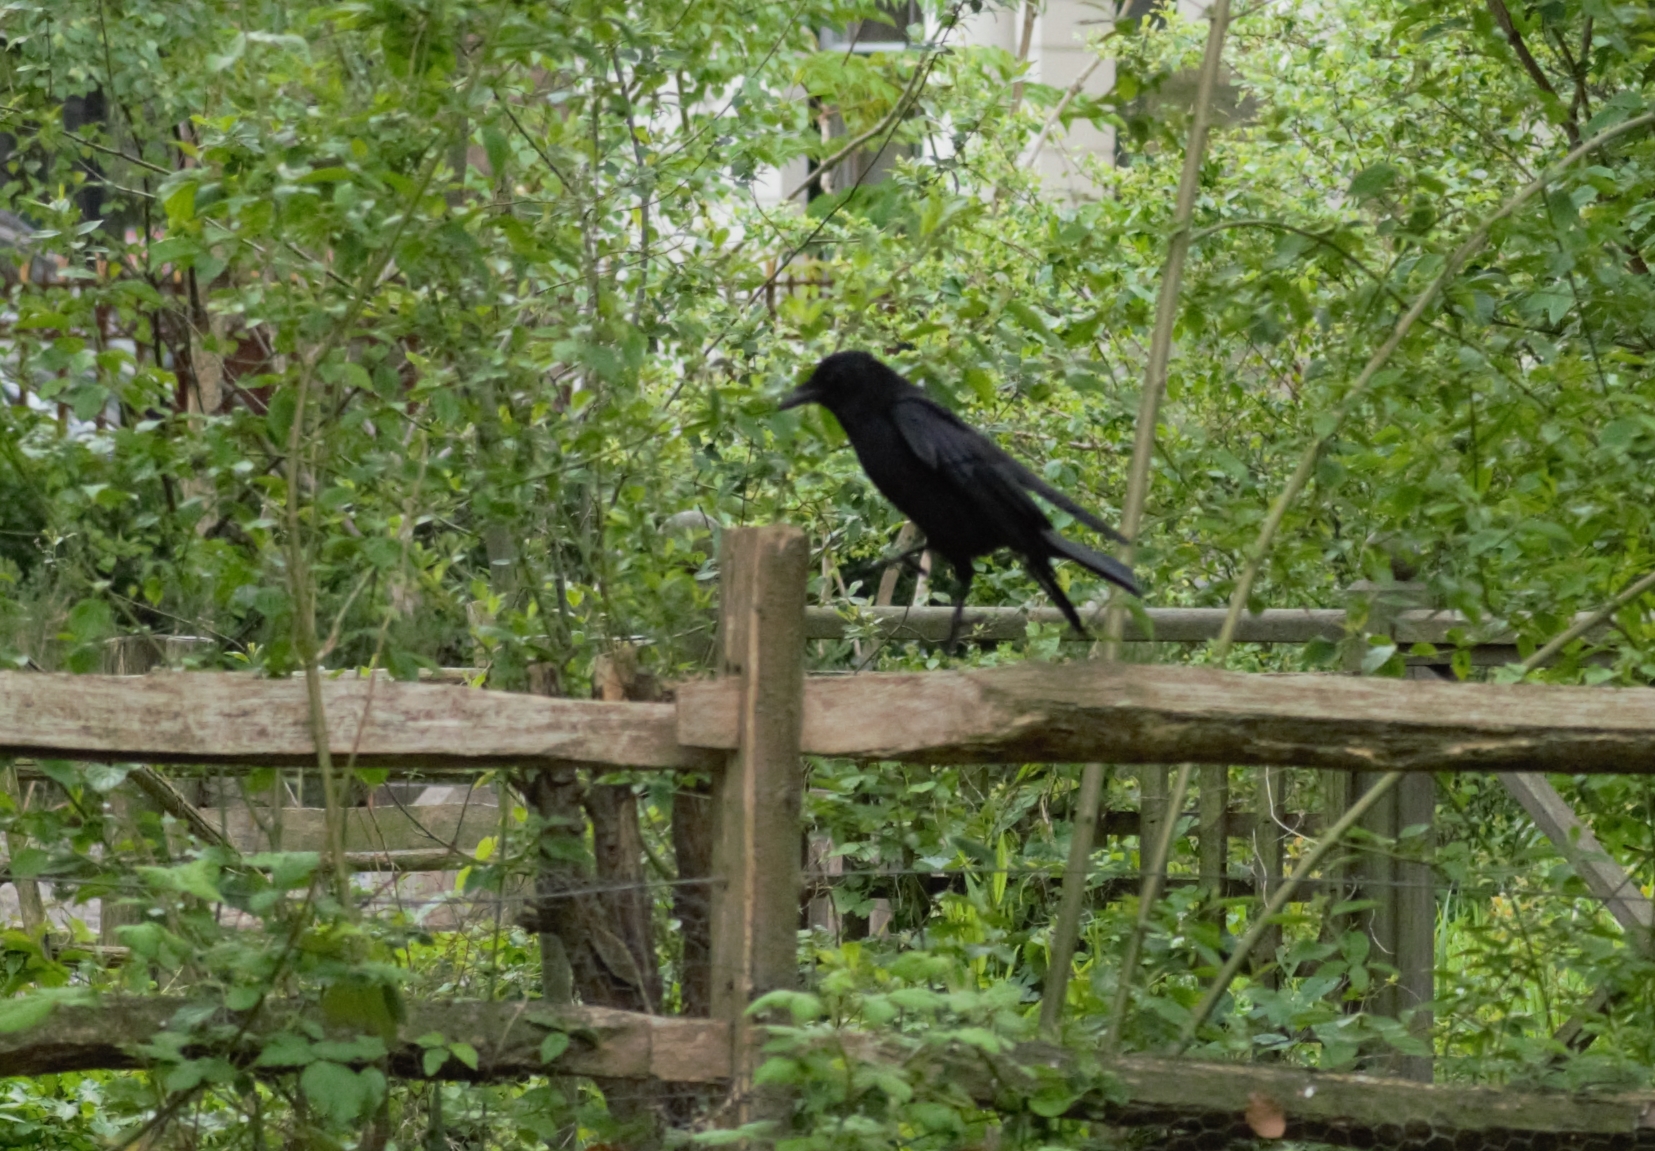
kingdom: Animalia
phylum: Chordata
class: Aves
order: Passeriformes
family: Corvidae
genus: Corvus
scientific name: Corvus corone
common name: Carrion crow
